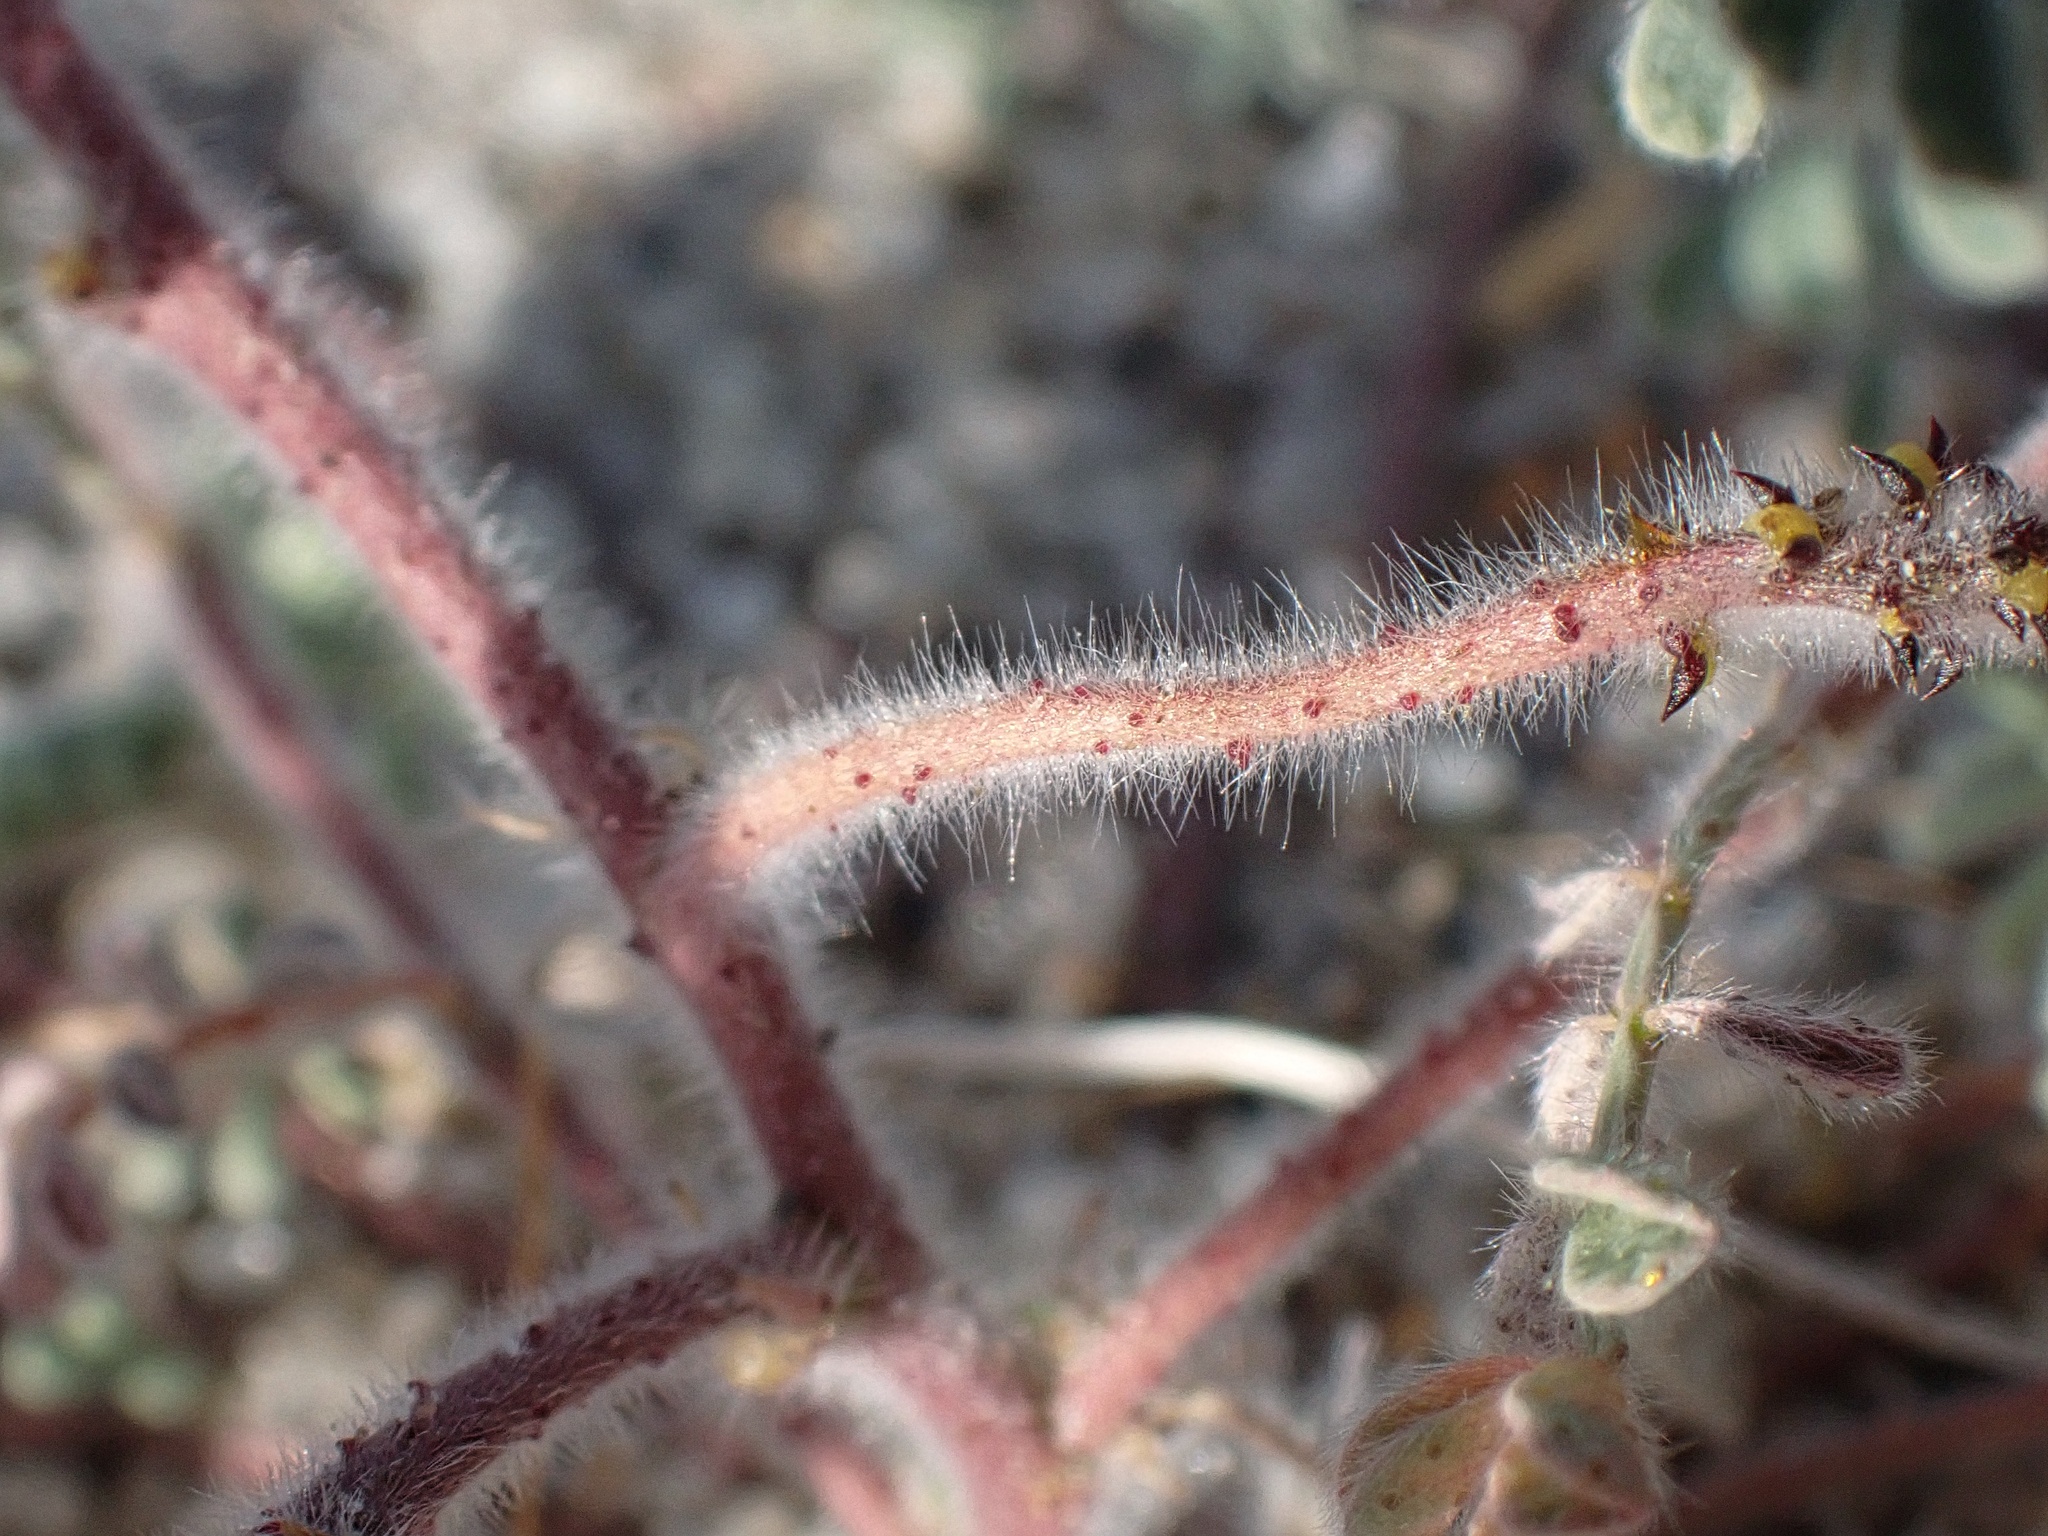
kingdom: Plantae
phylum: Tracheophyta
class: Magnoliopsida
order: Fabales
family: Fabaceae
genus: Dalea
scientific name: Dalea mollis
